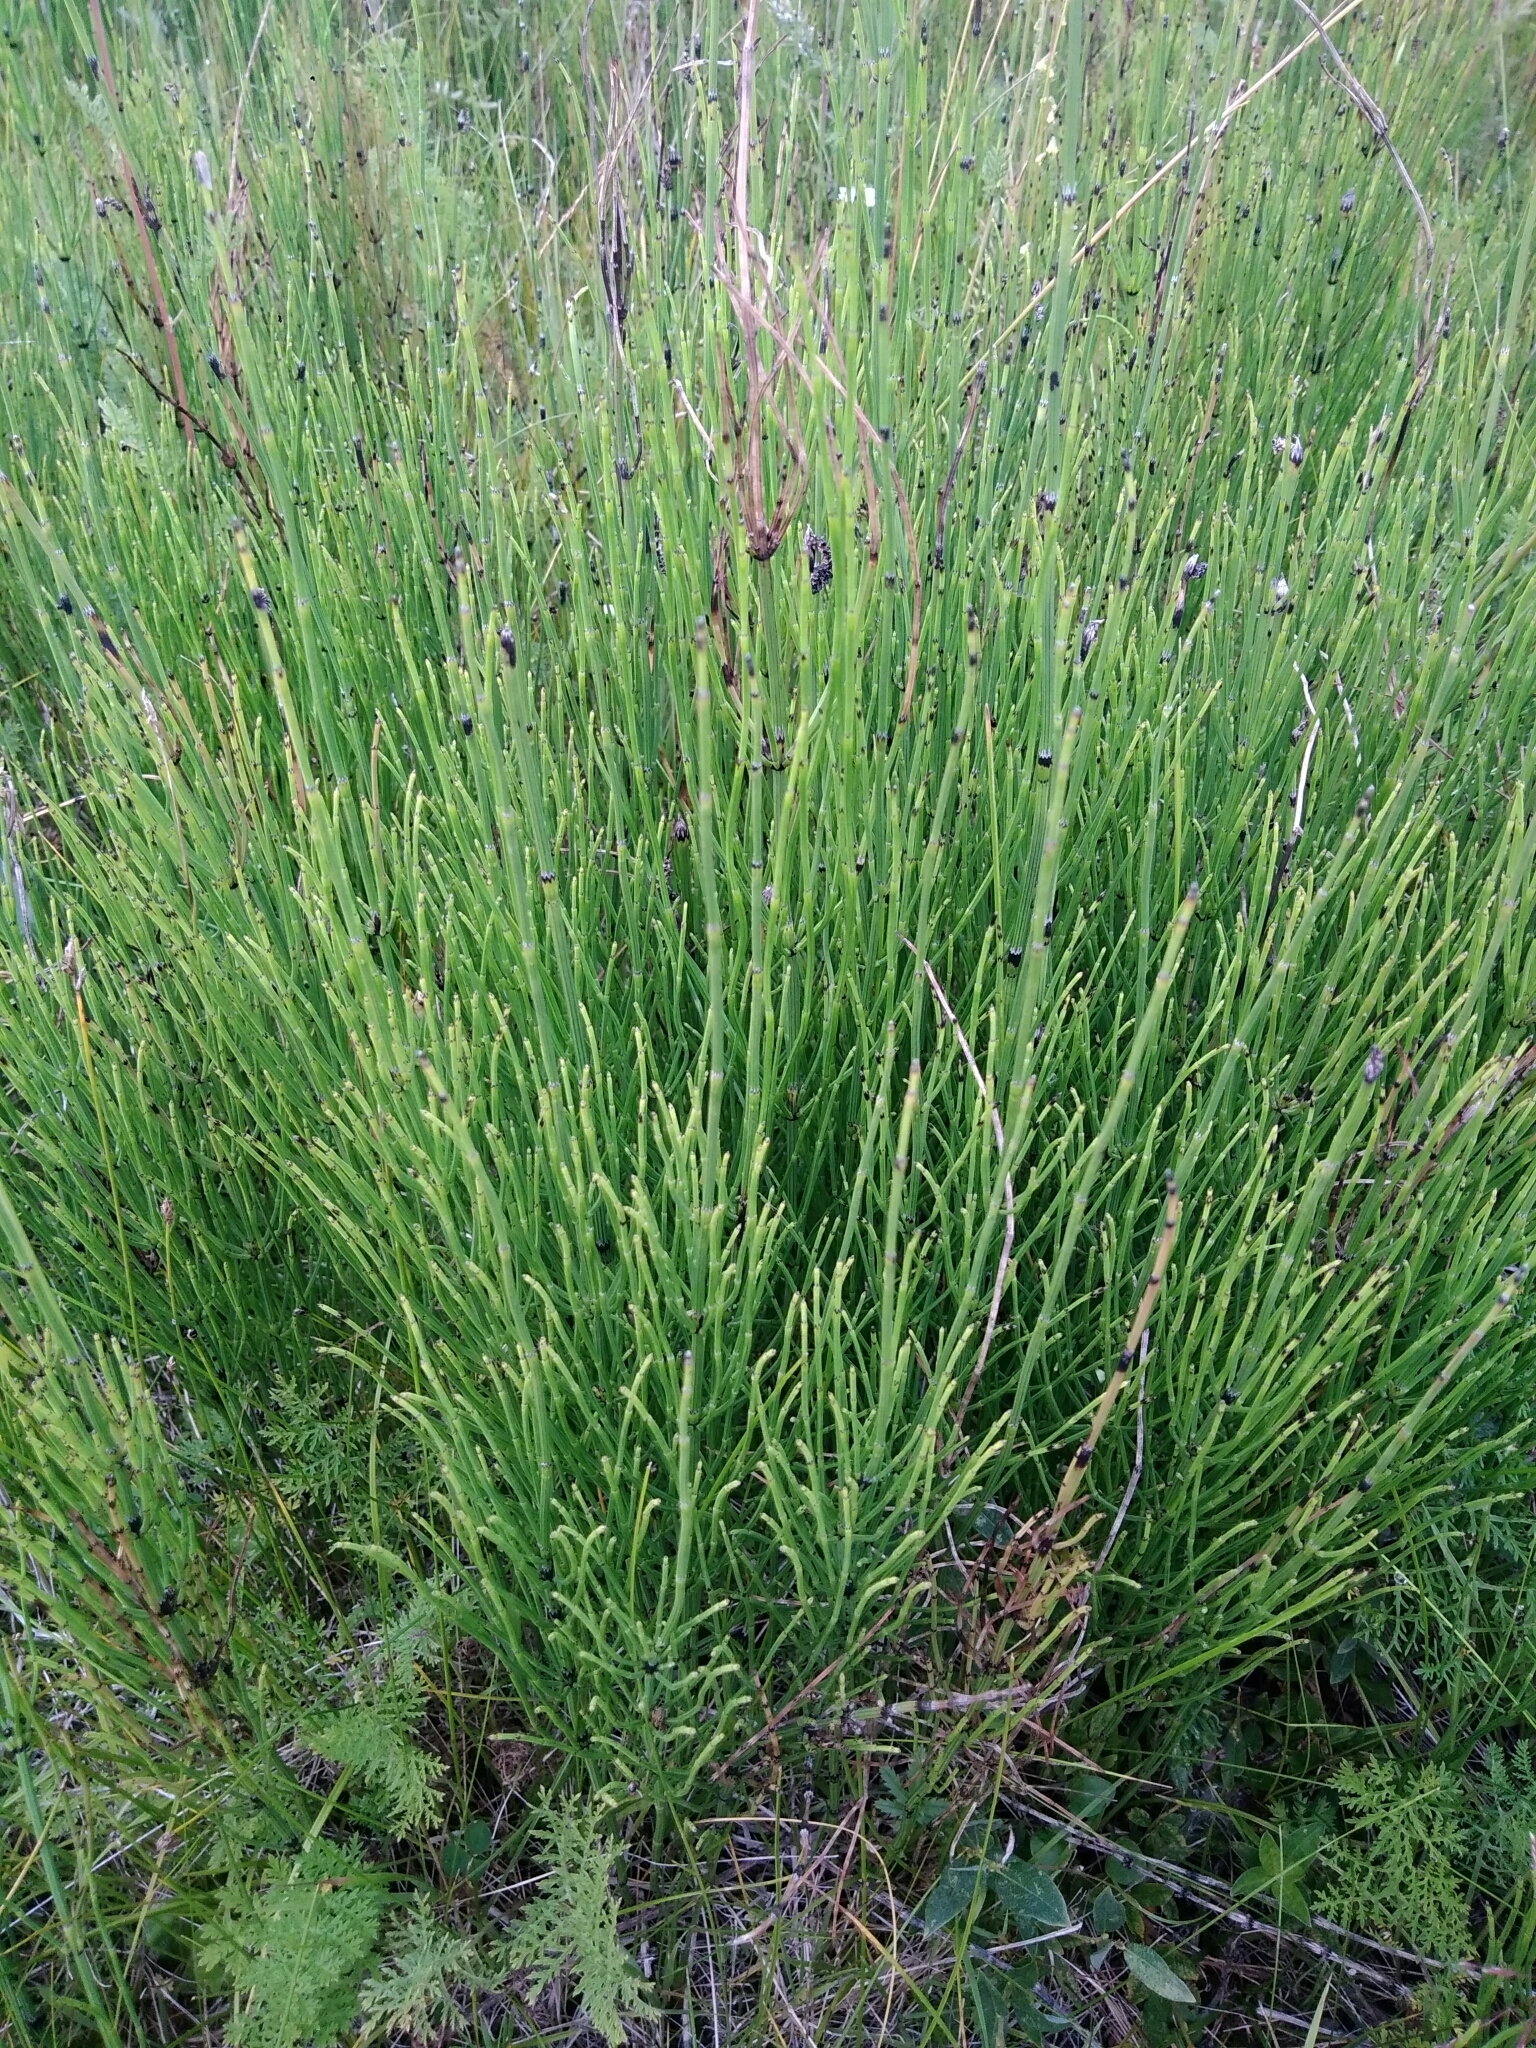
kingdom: Plantae
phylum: Tracheophyta
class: Polypodiopsida
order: Equisetales
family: Equisetaceae
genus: Equisetum
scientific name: Equisetum palustre
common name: Marsh horsetail
